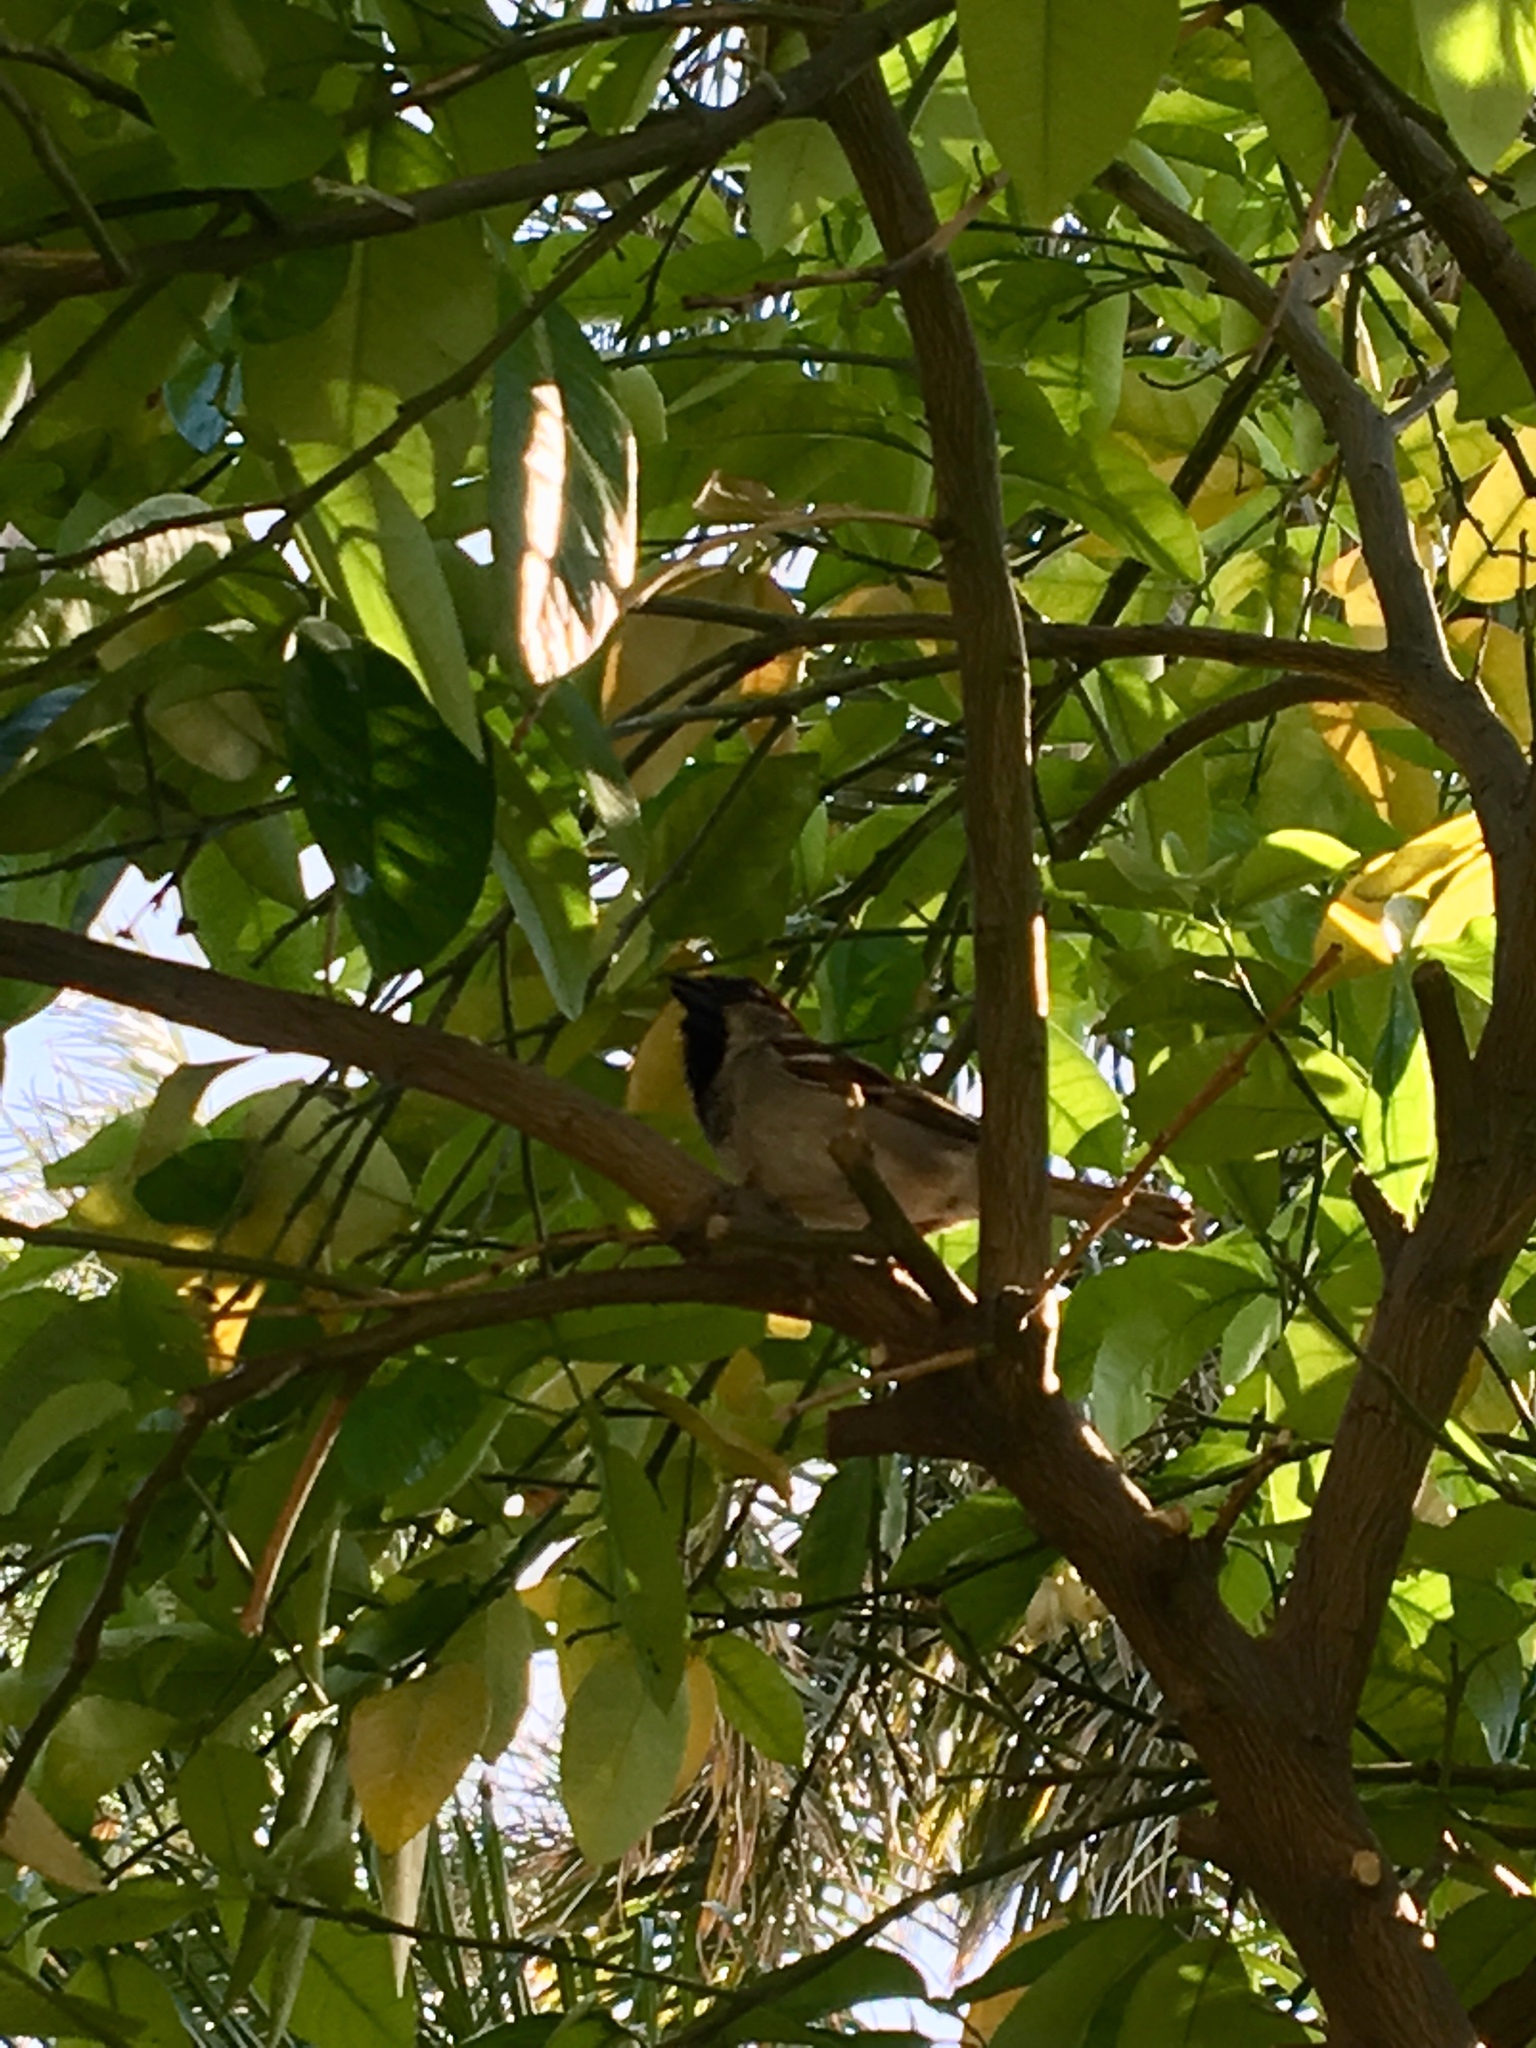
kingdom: Animalia
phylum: Chordata
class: Aves
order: Passeriformes
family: Passeridae
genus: Passer
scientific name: Passer domesticus
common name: House sparrow
